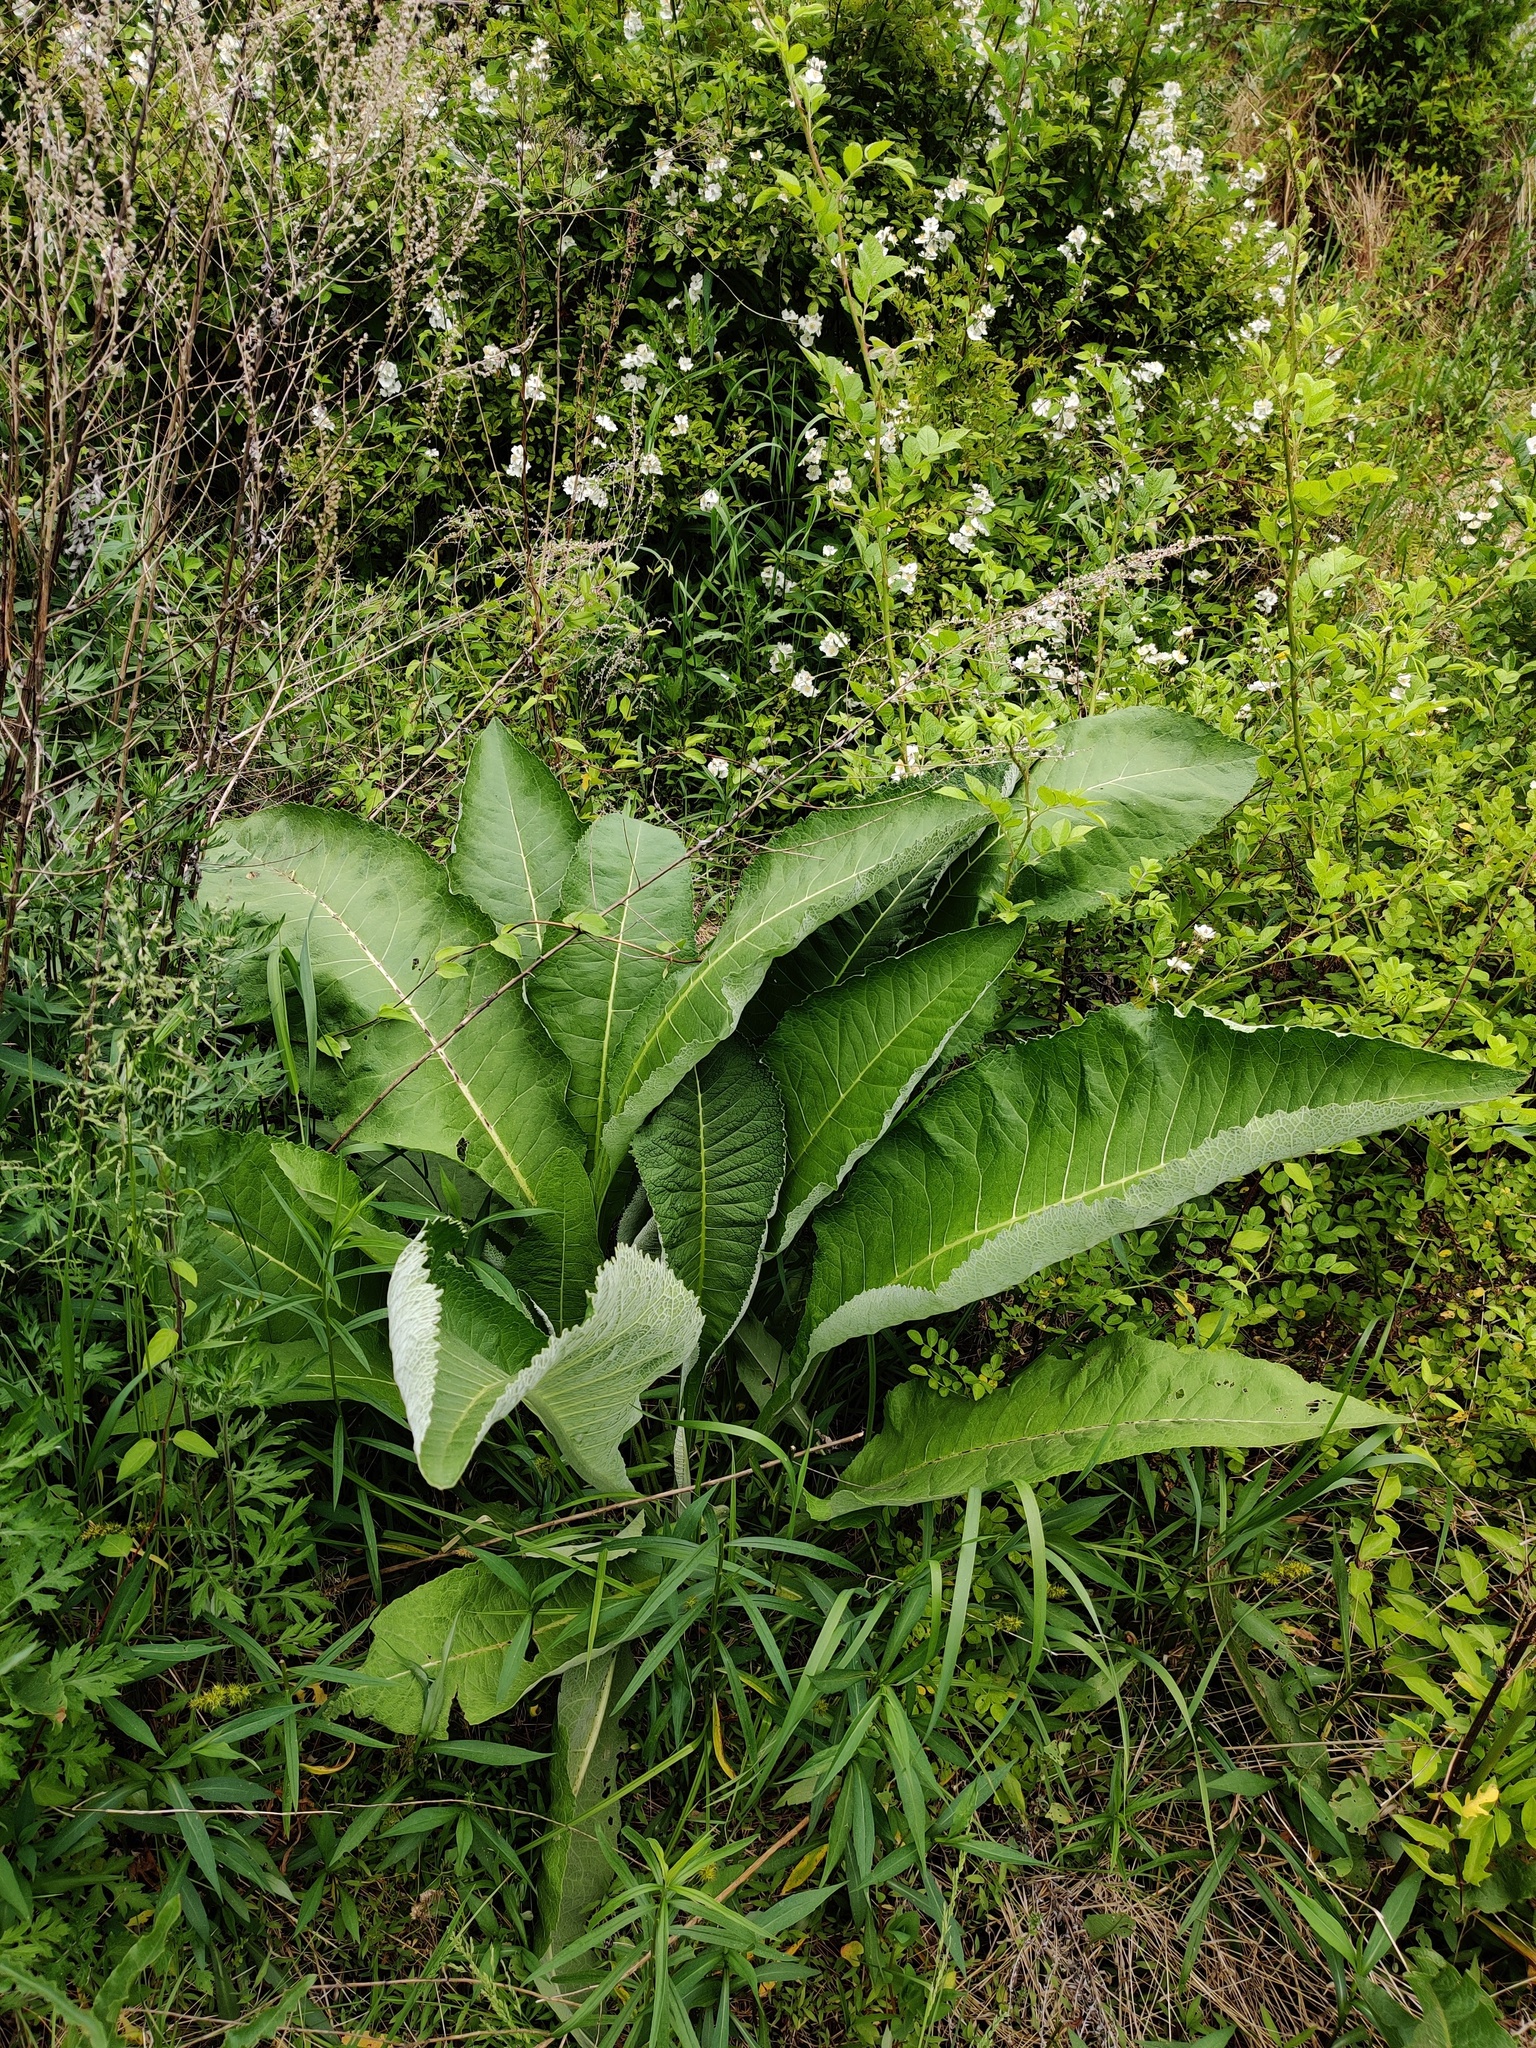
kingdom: Plantae
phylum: Tracheophyta
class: Magnoliopsida
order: Asterales
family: Asteraceae
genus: Inula
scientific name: Inula helenium
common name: Elecampane
